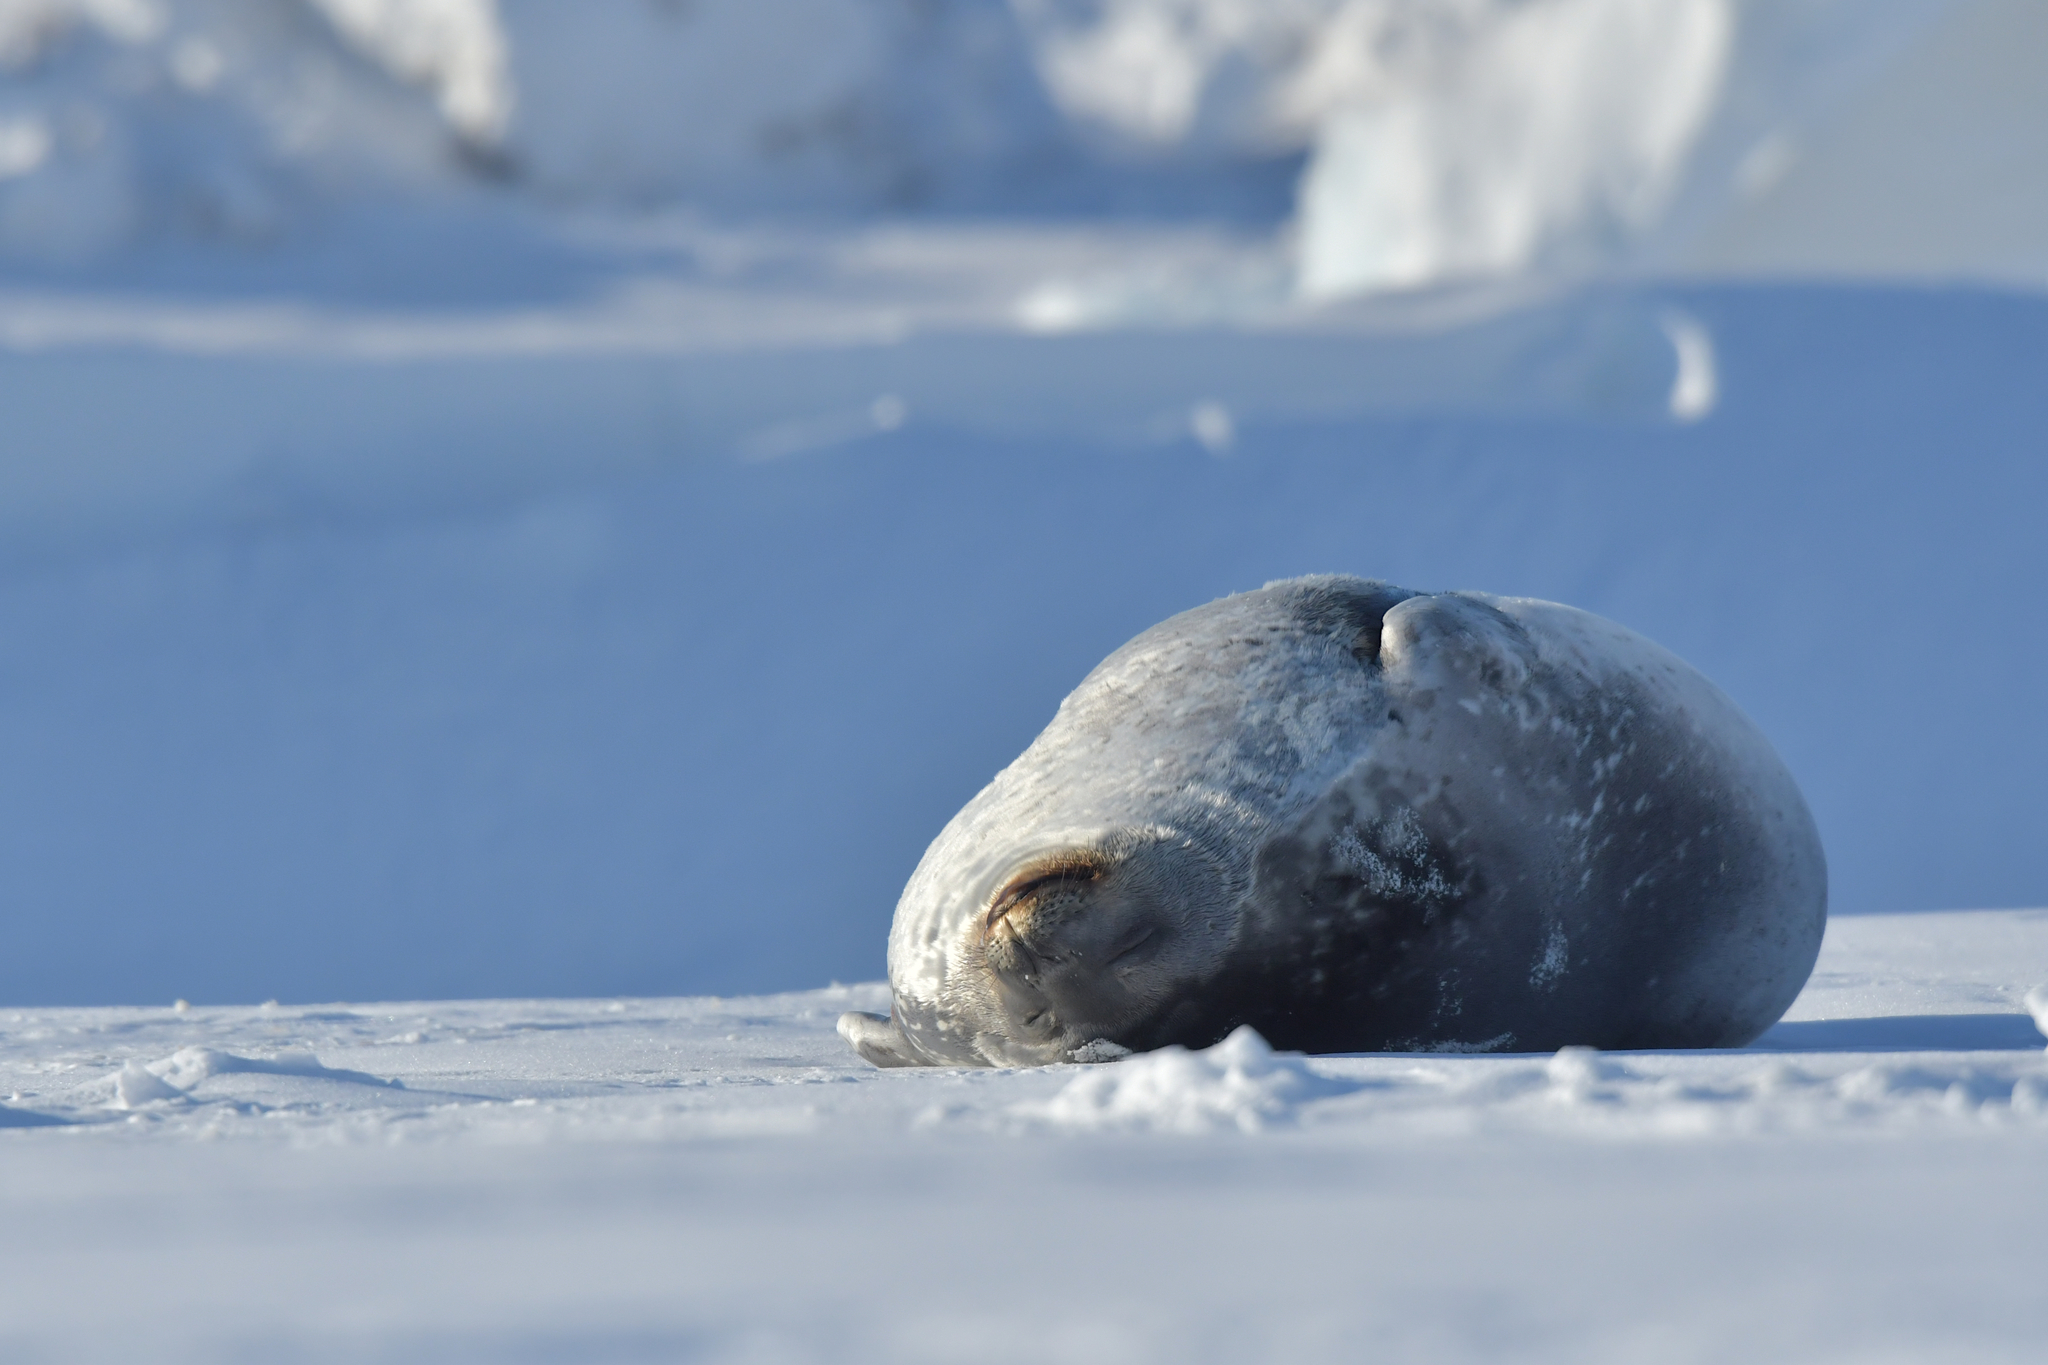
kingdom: Animalia
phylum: Chordata
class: Mammalia
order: Carnivora
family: Phocidae
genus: Leptonychotes
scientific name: Leptonychotes weddellii
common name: Weddell seal
